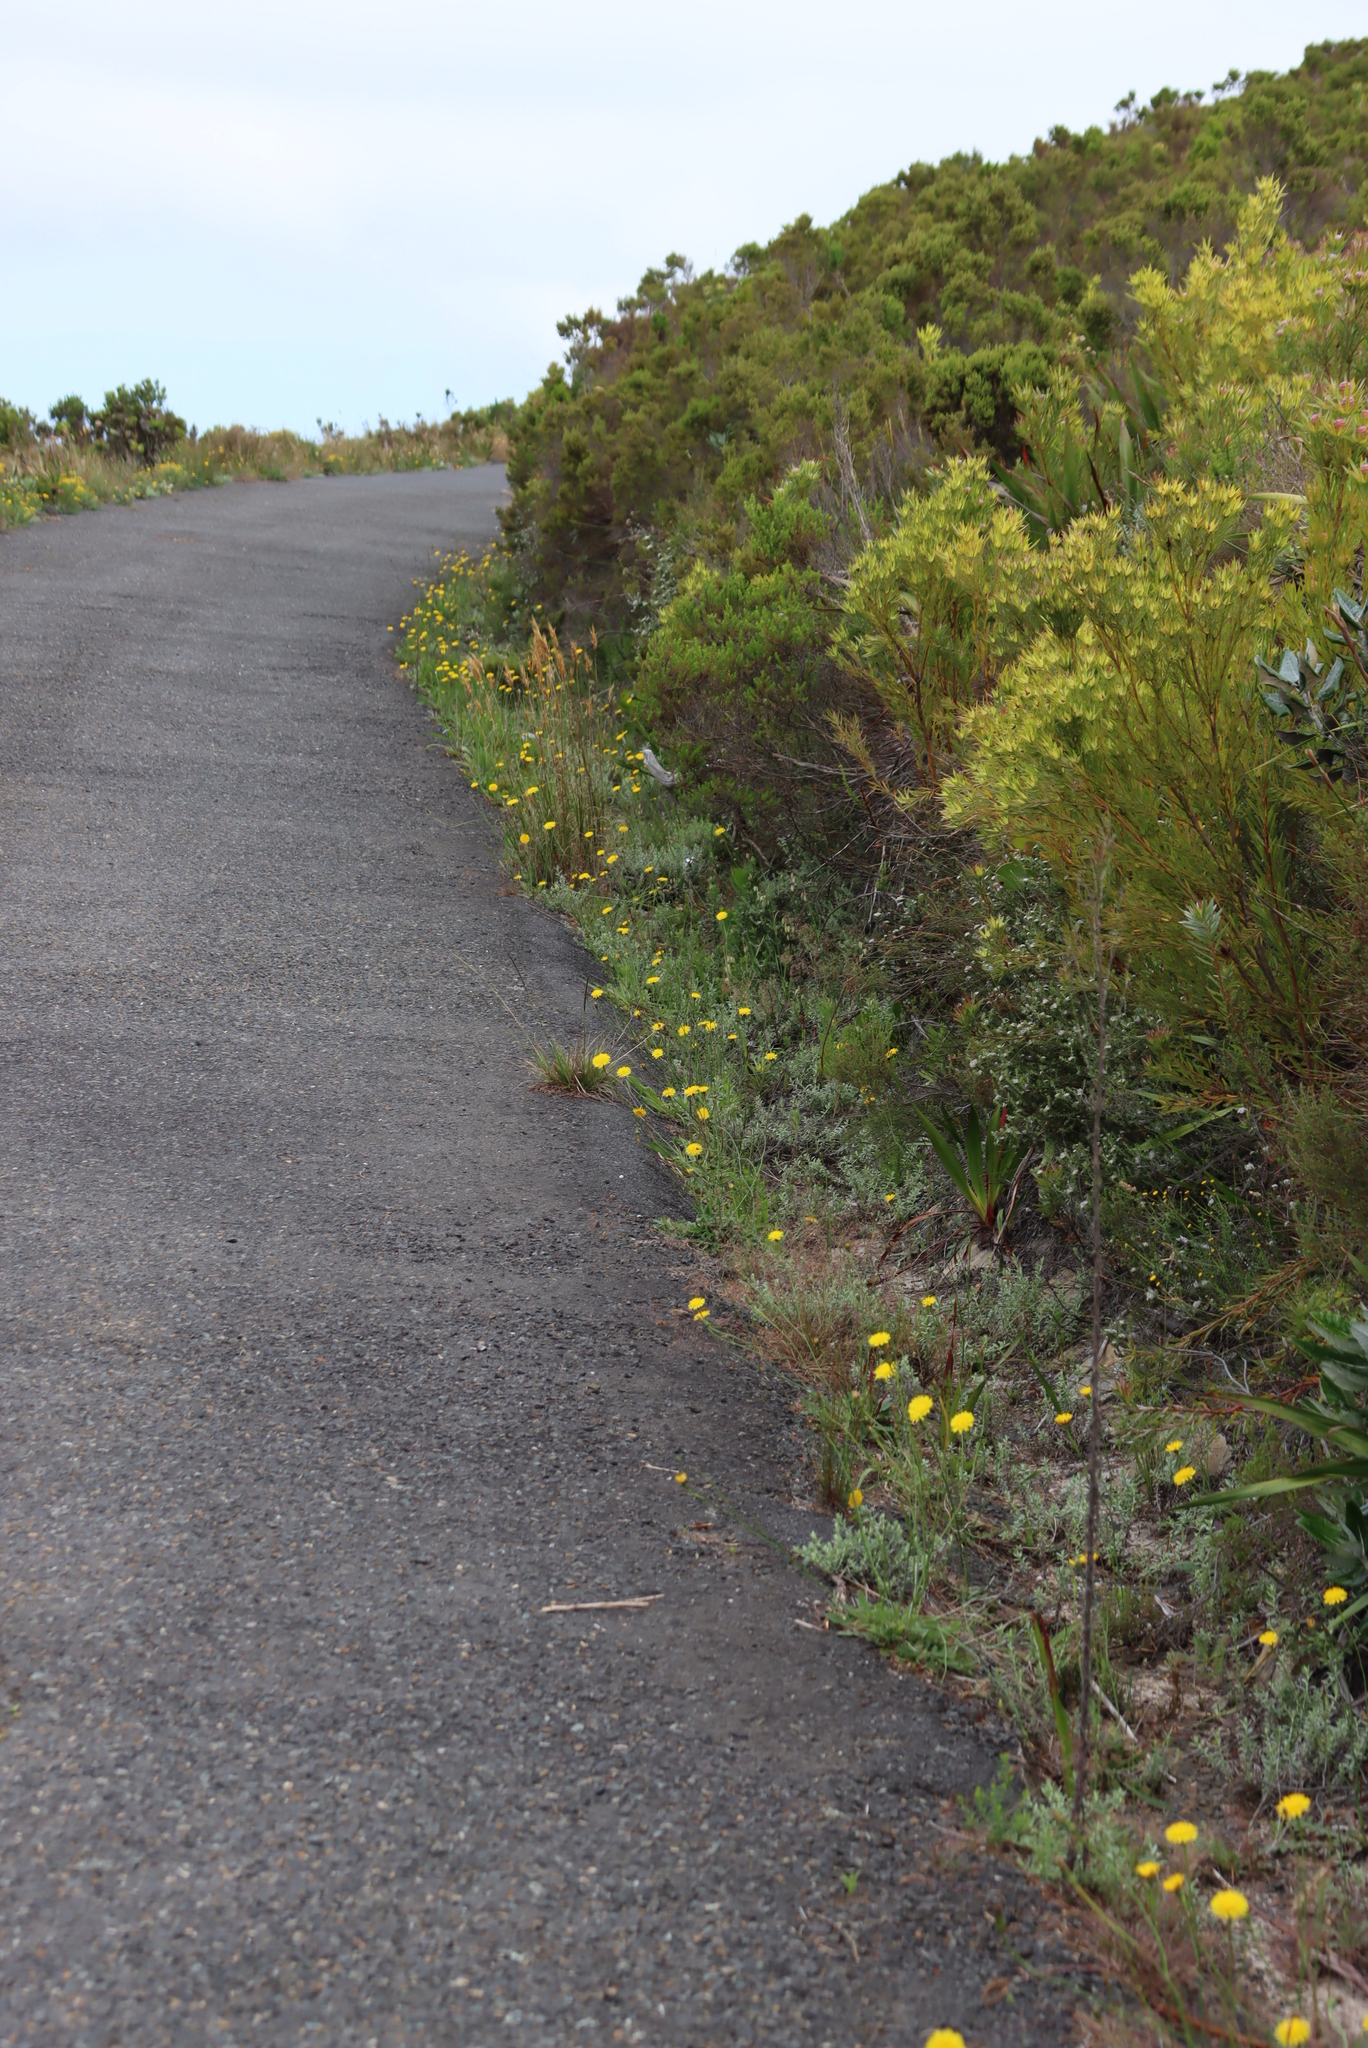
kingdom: Plantae
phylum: Tracheophyta
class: Magnoliopsida
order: Asterales
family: Asteraceae
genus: Hypochaeris
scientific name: Hypochaeris radicata
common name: Flatweed
